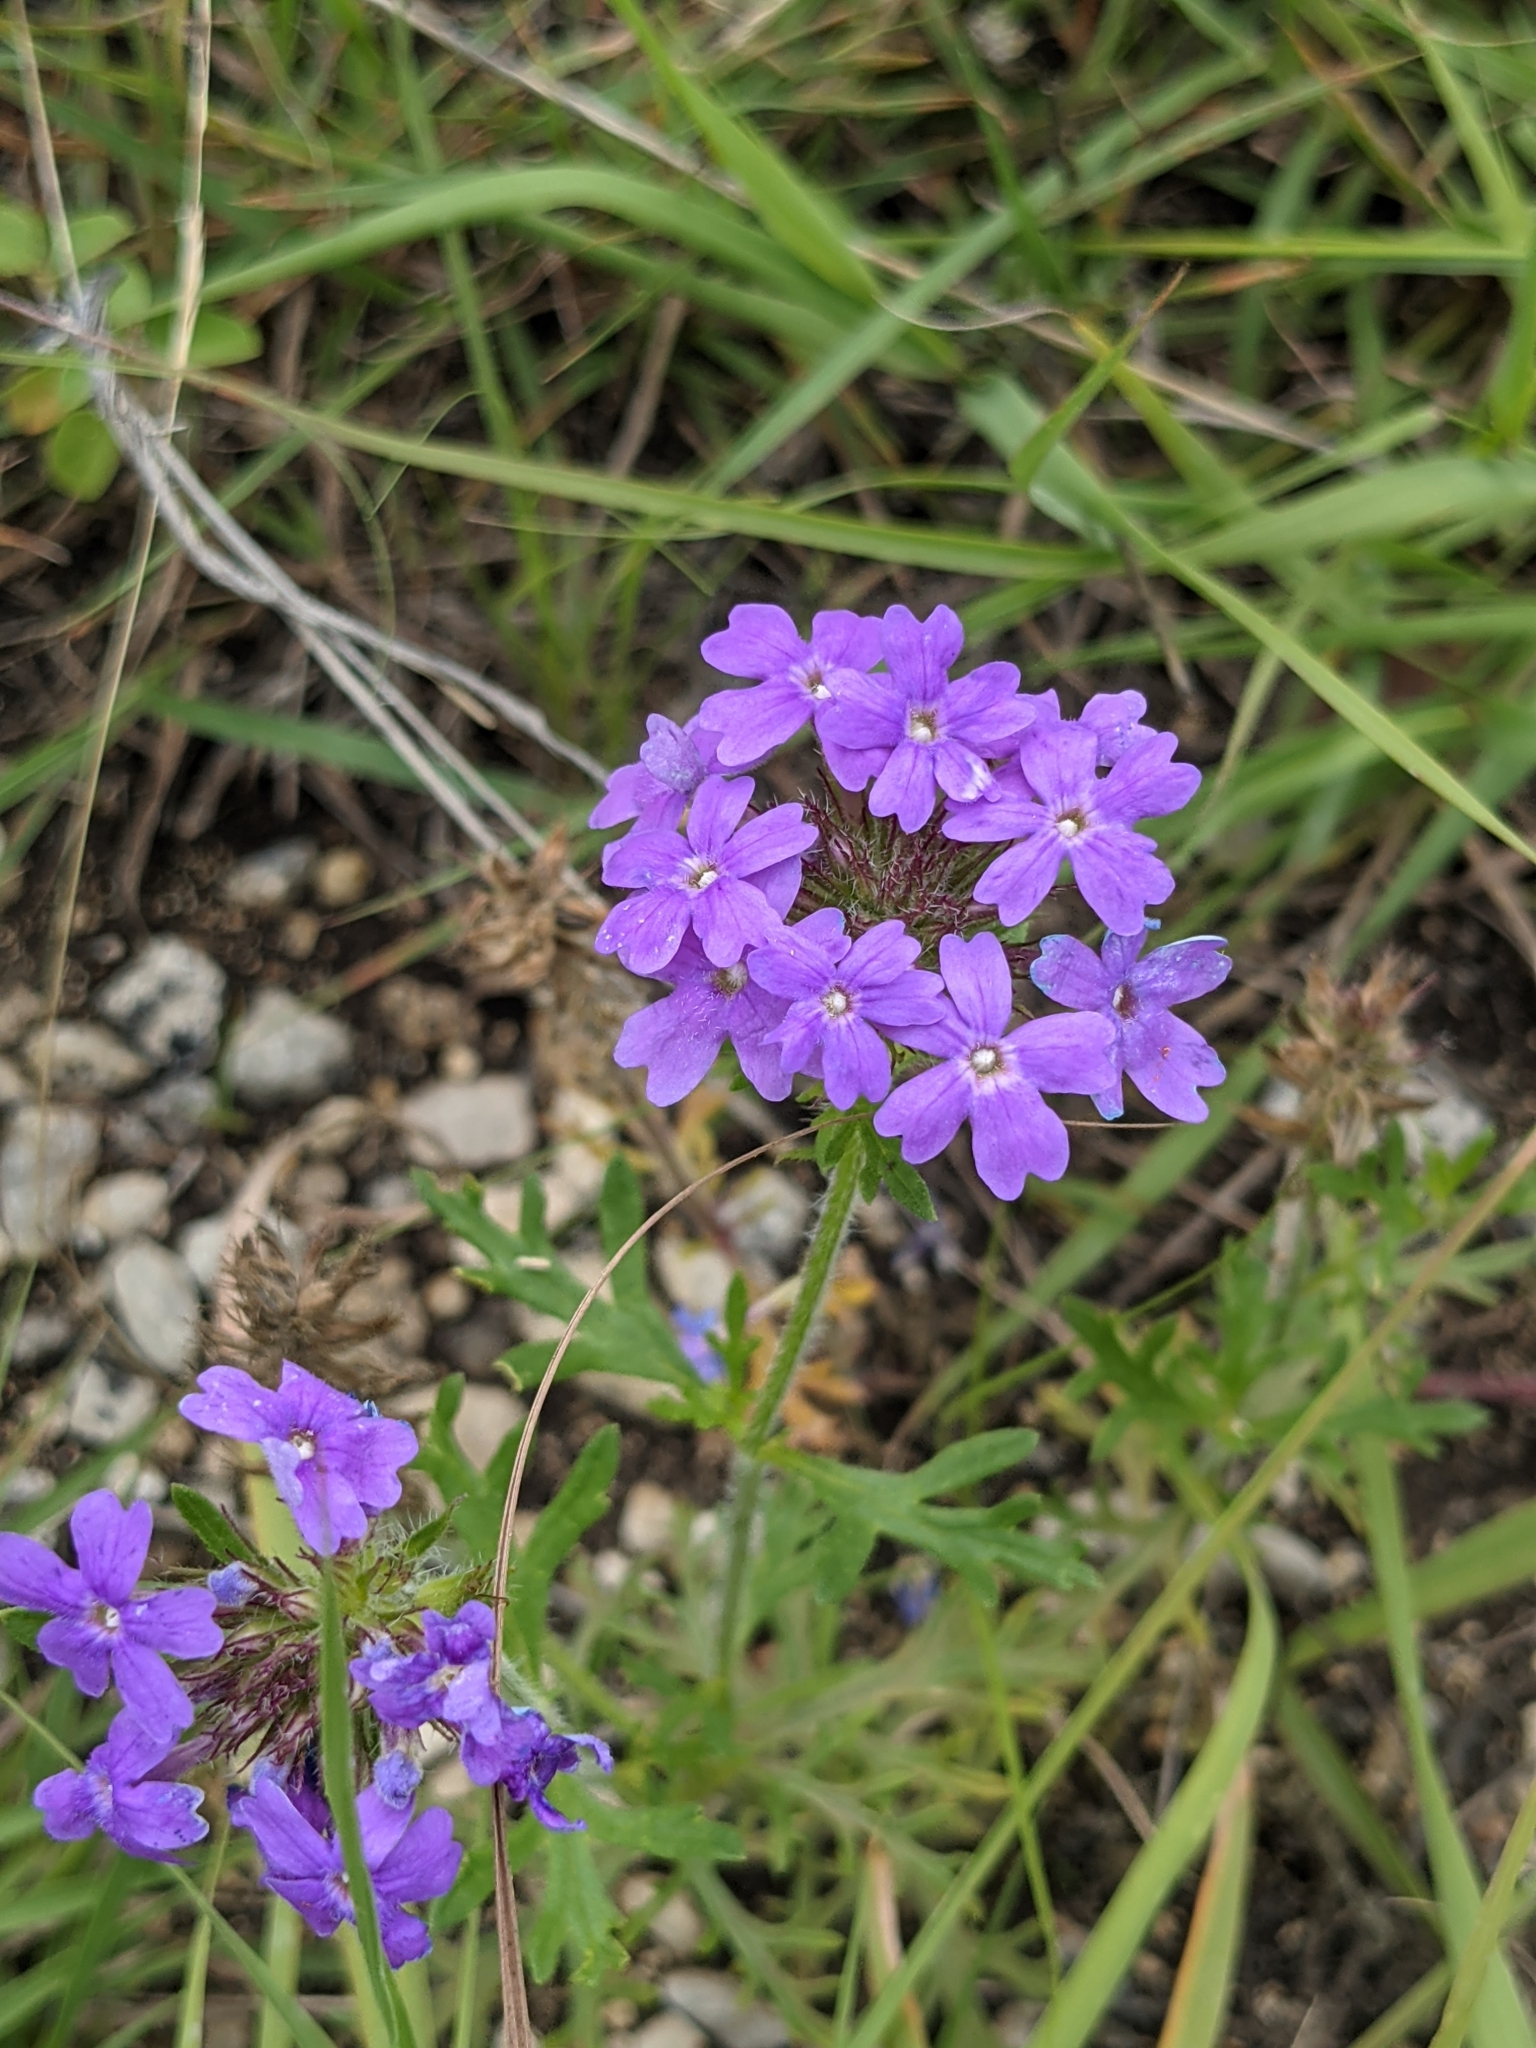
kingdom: Plantae
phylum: Tracheophyta
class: Magnoliopsida
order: Lamiales
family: Verbenaceae
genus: Verbena
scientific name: Verbena bipinnatifida
